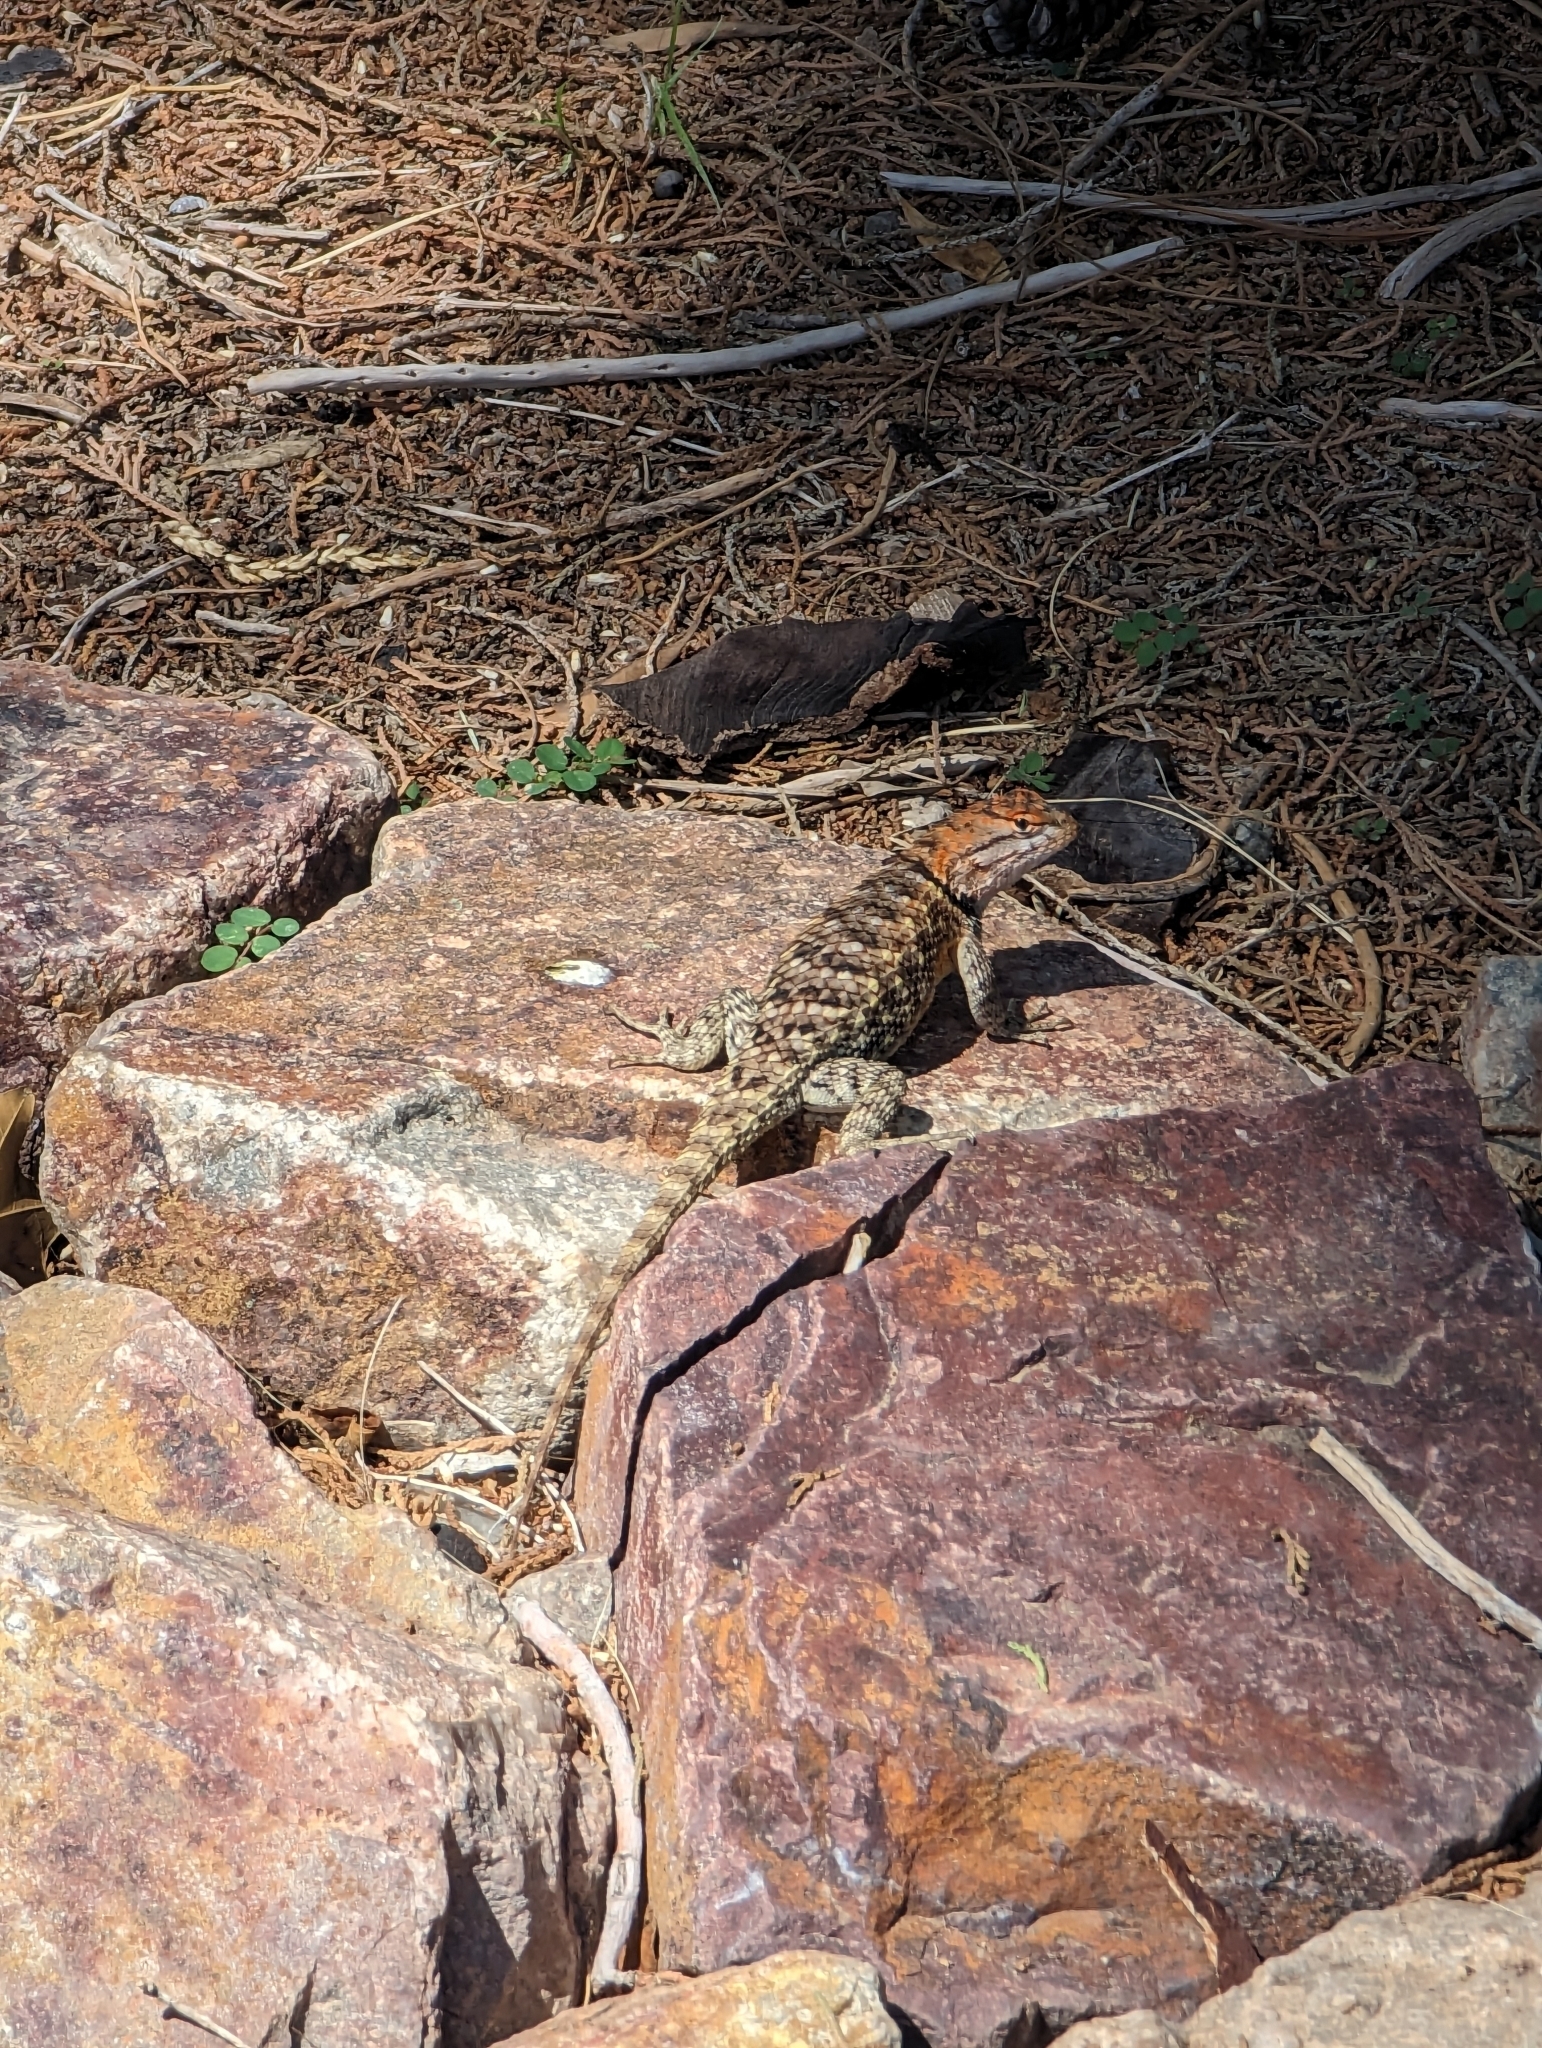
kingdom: Animalia
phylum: Chordata
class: Squamata
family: Phrynosomatidae
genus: Sceloporus
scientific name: Sceloporus magister
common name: Desert spiny lizard
